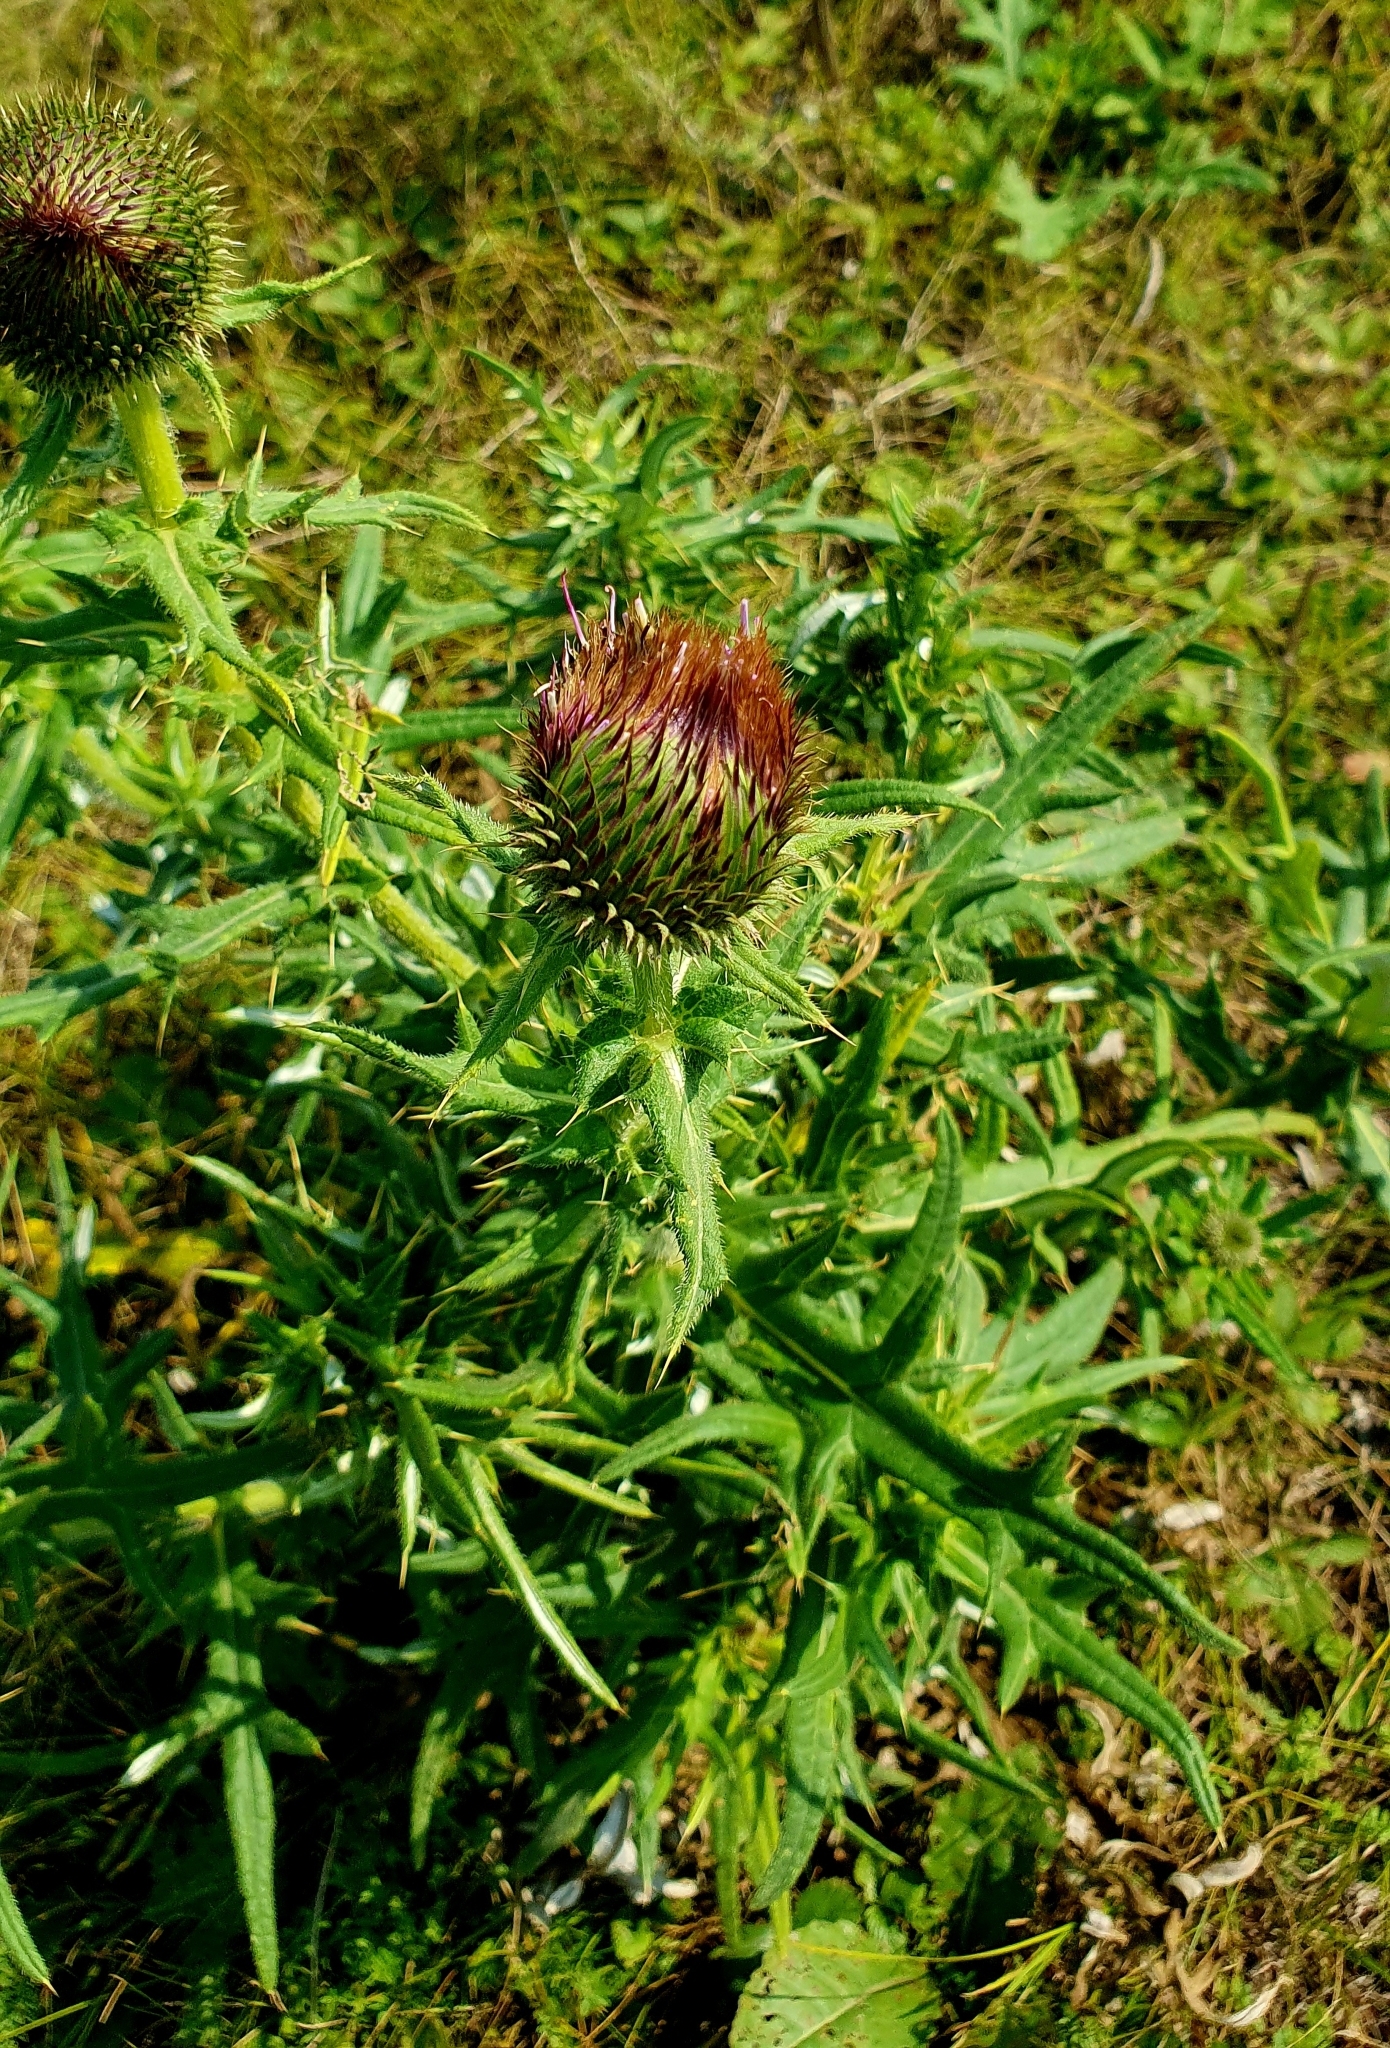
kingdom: Plantae
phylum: Tracheophyta
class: Magnoliopsida
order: Asterales
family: Asteraceae
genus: Cirsium
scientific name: Cirsium serrulatum
